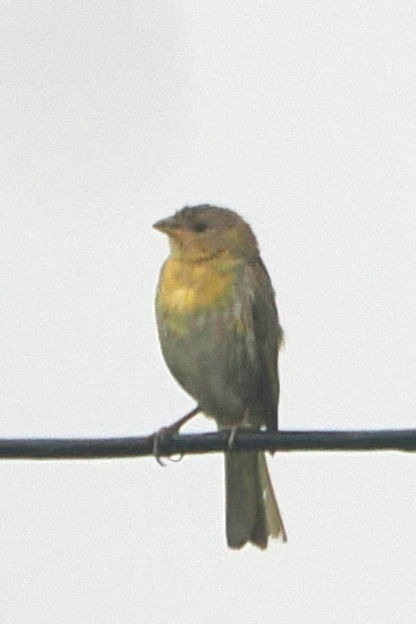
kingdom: Animalia
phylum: Chordata
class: Aves
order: Passeriformes
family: Thraupidae
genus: Sicalis
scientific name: Sicalis flaveola
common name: Saffron finch
